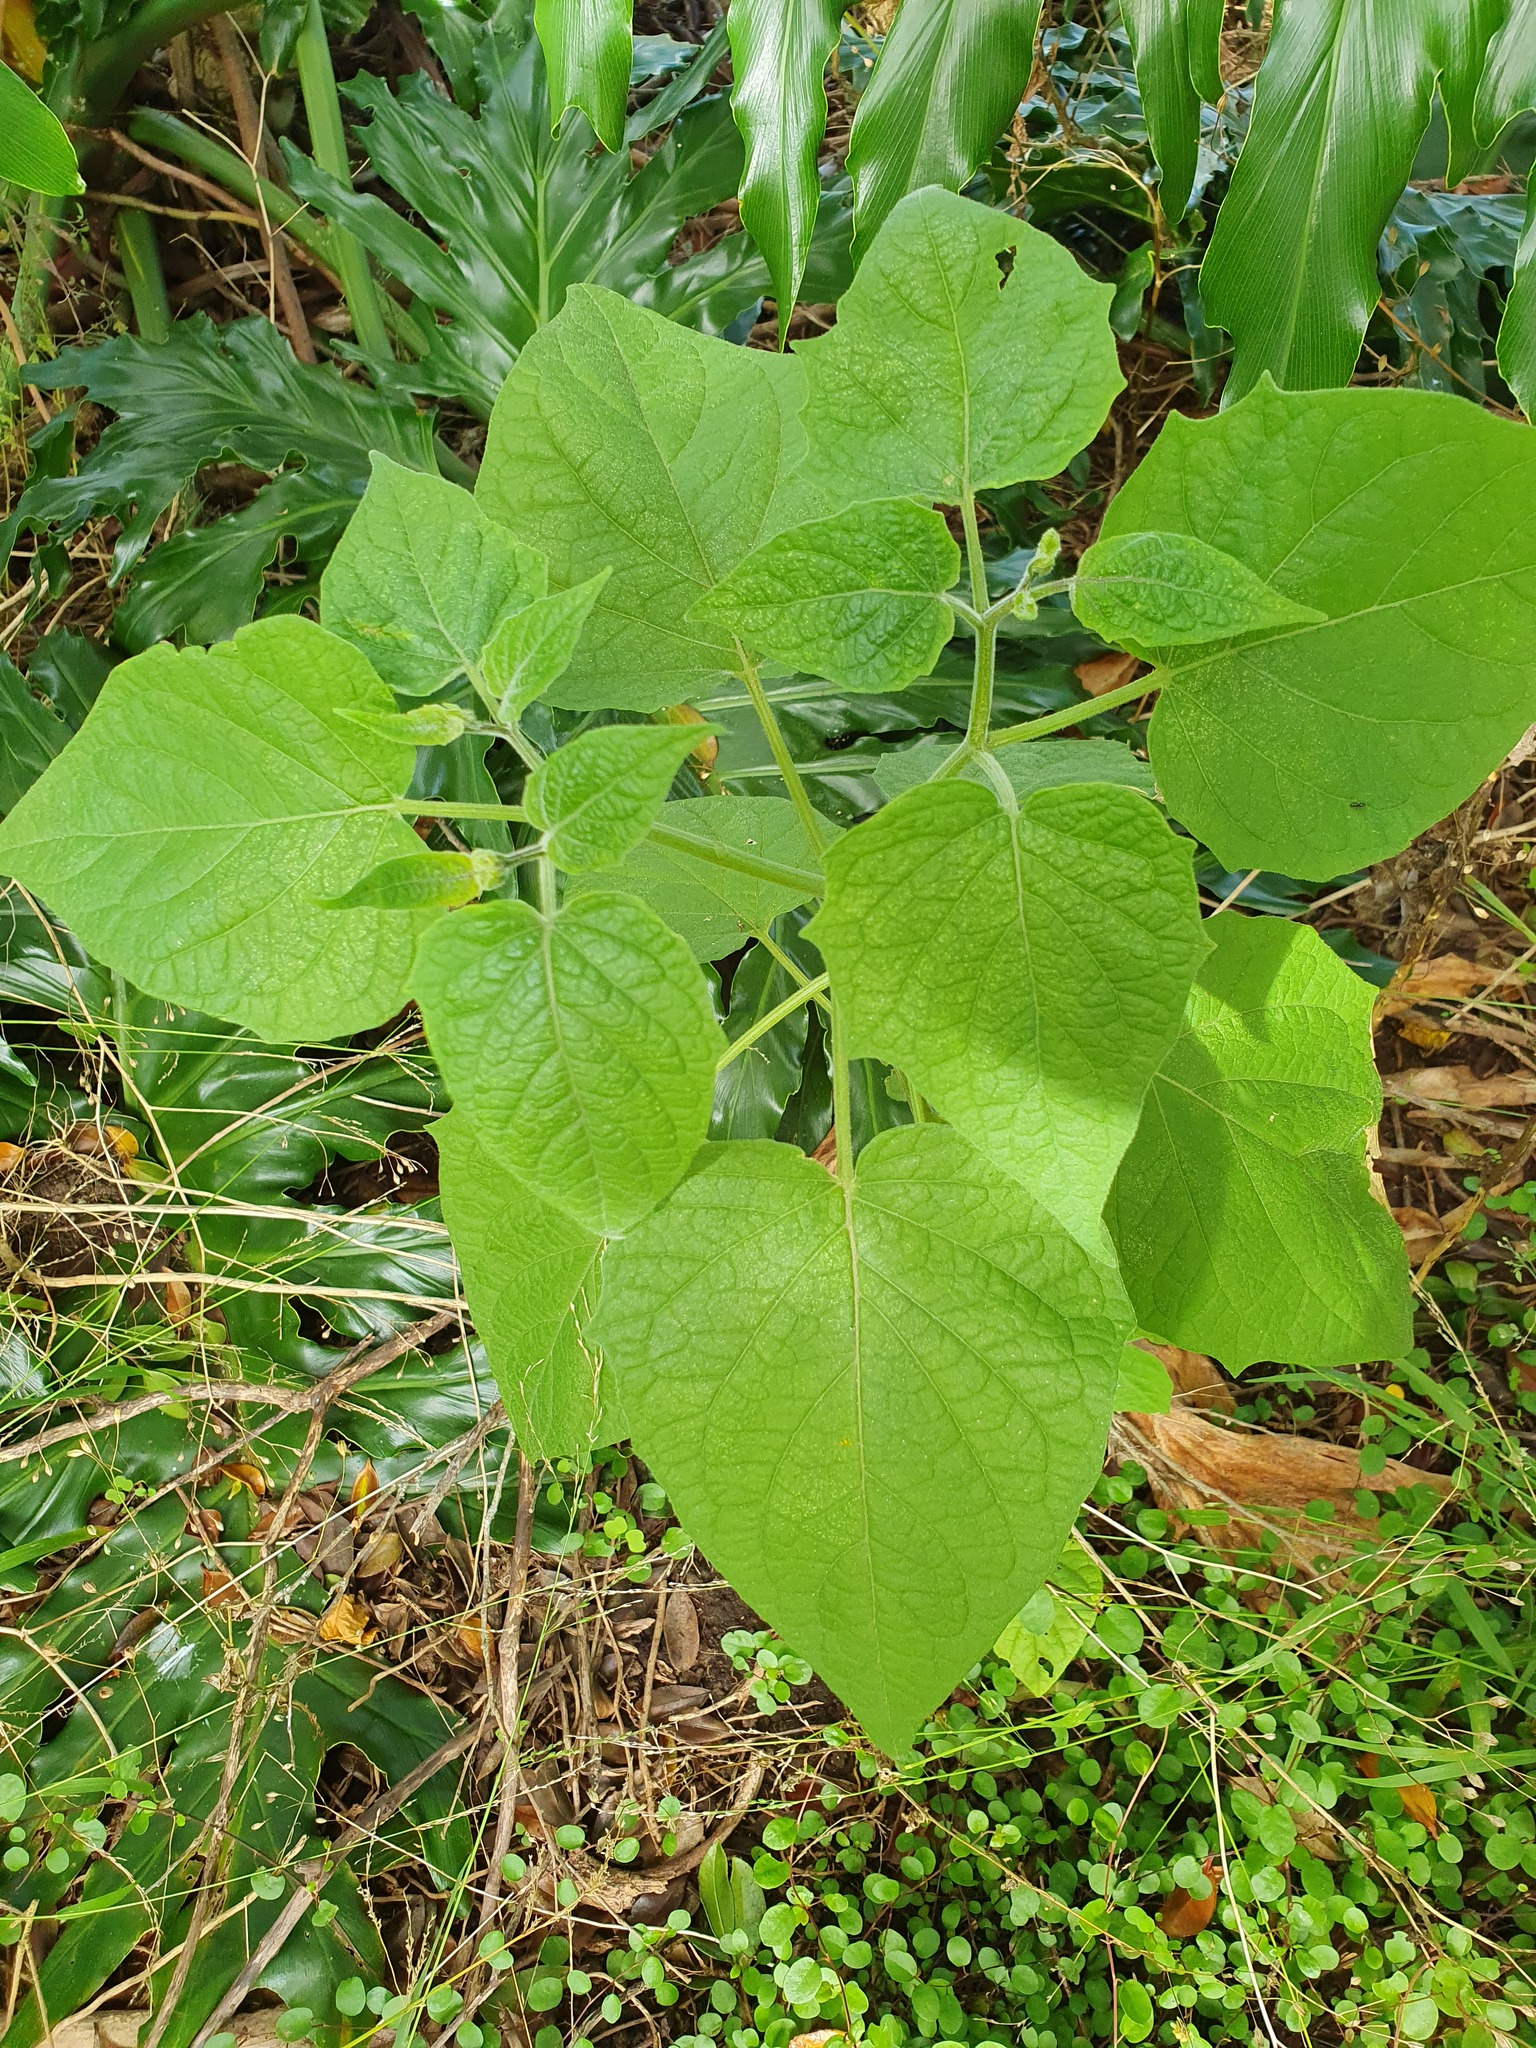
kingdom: Plantae
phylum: Tracheophyta
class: Magnoliopsida
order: Solanales
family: Solanaceae
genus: Physalis
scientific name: Physalis peruviana
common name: Cape-gooseberry
